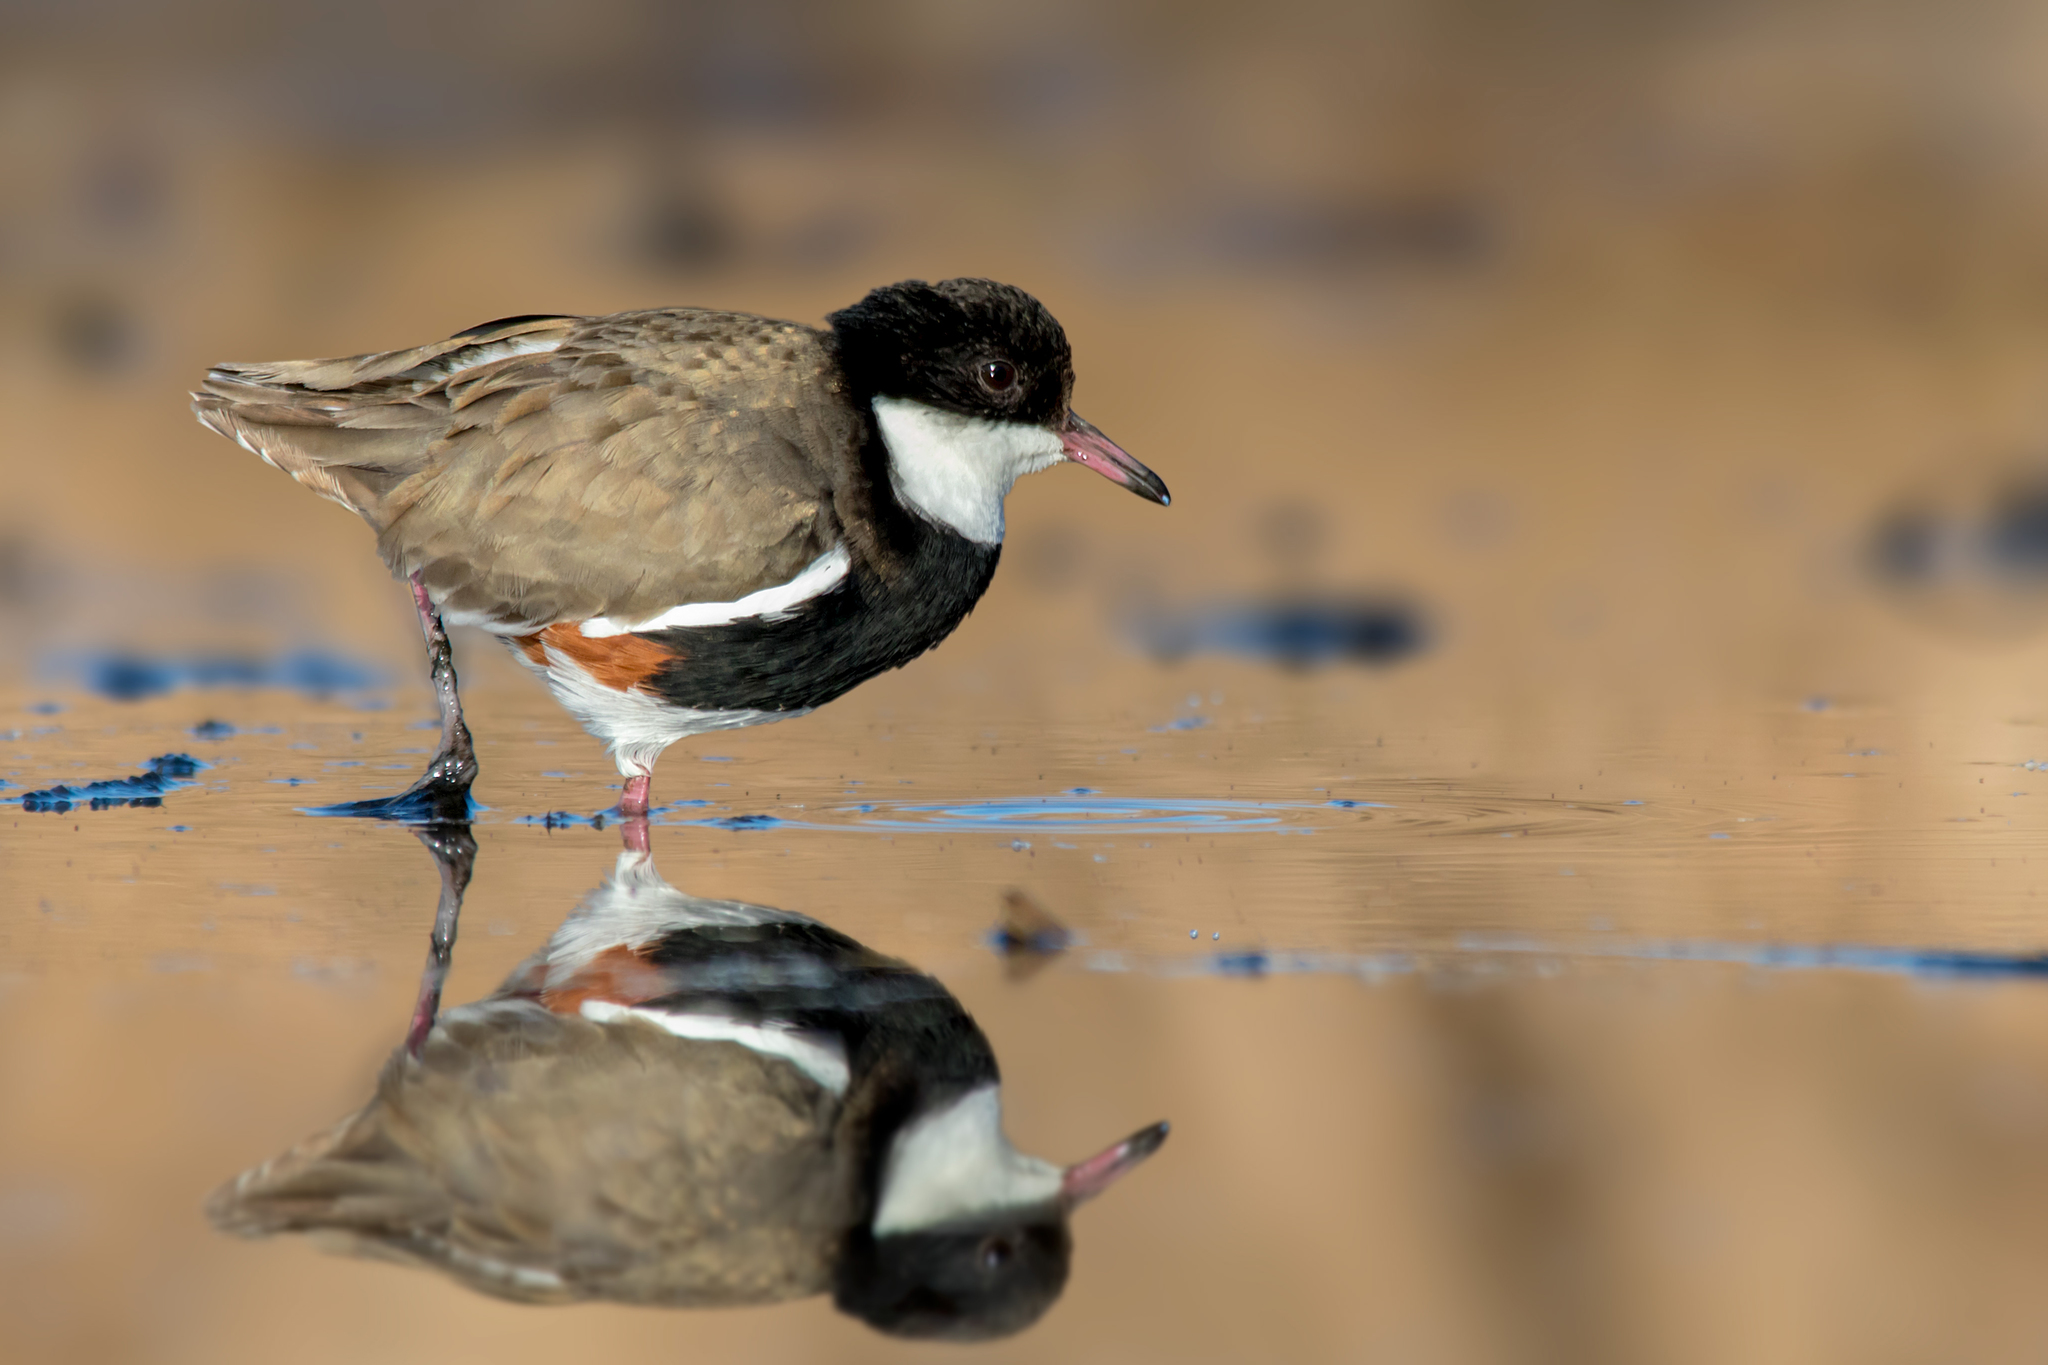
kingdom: Animalia
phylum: Chordata
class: Aves
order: Charadriiformes
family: Charadriidae
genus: Erythrogonys
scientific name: Erythrogonys cinctus
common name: Red-kneed dotterel
